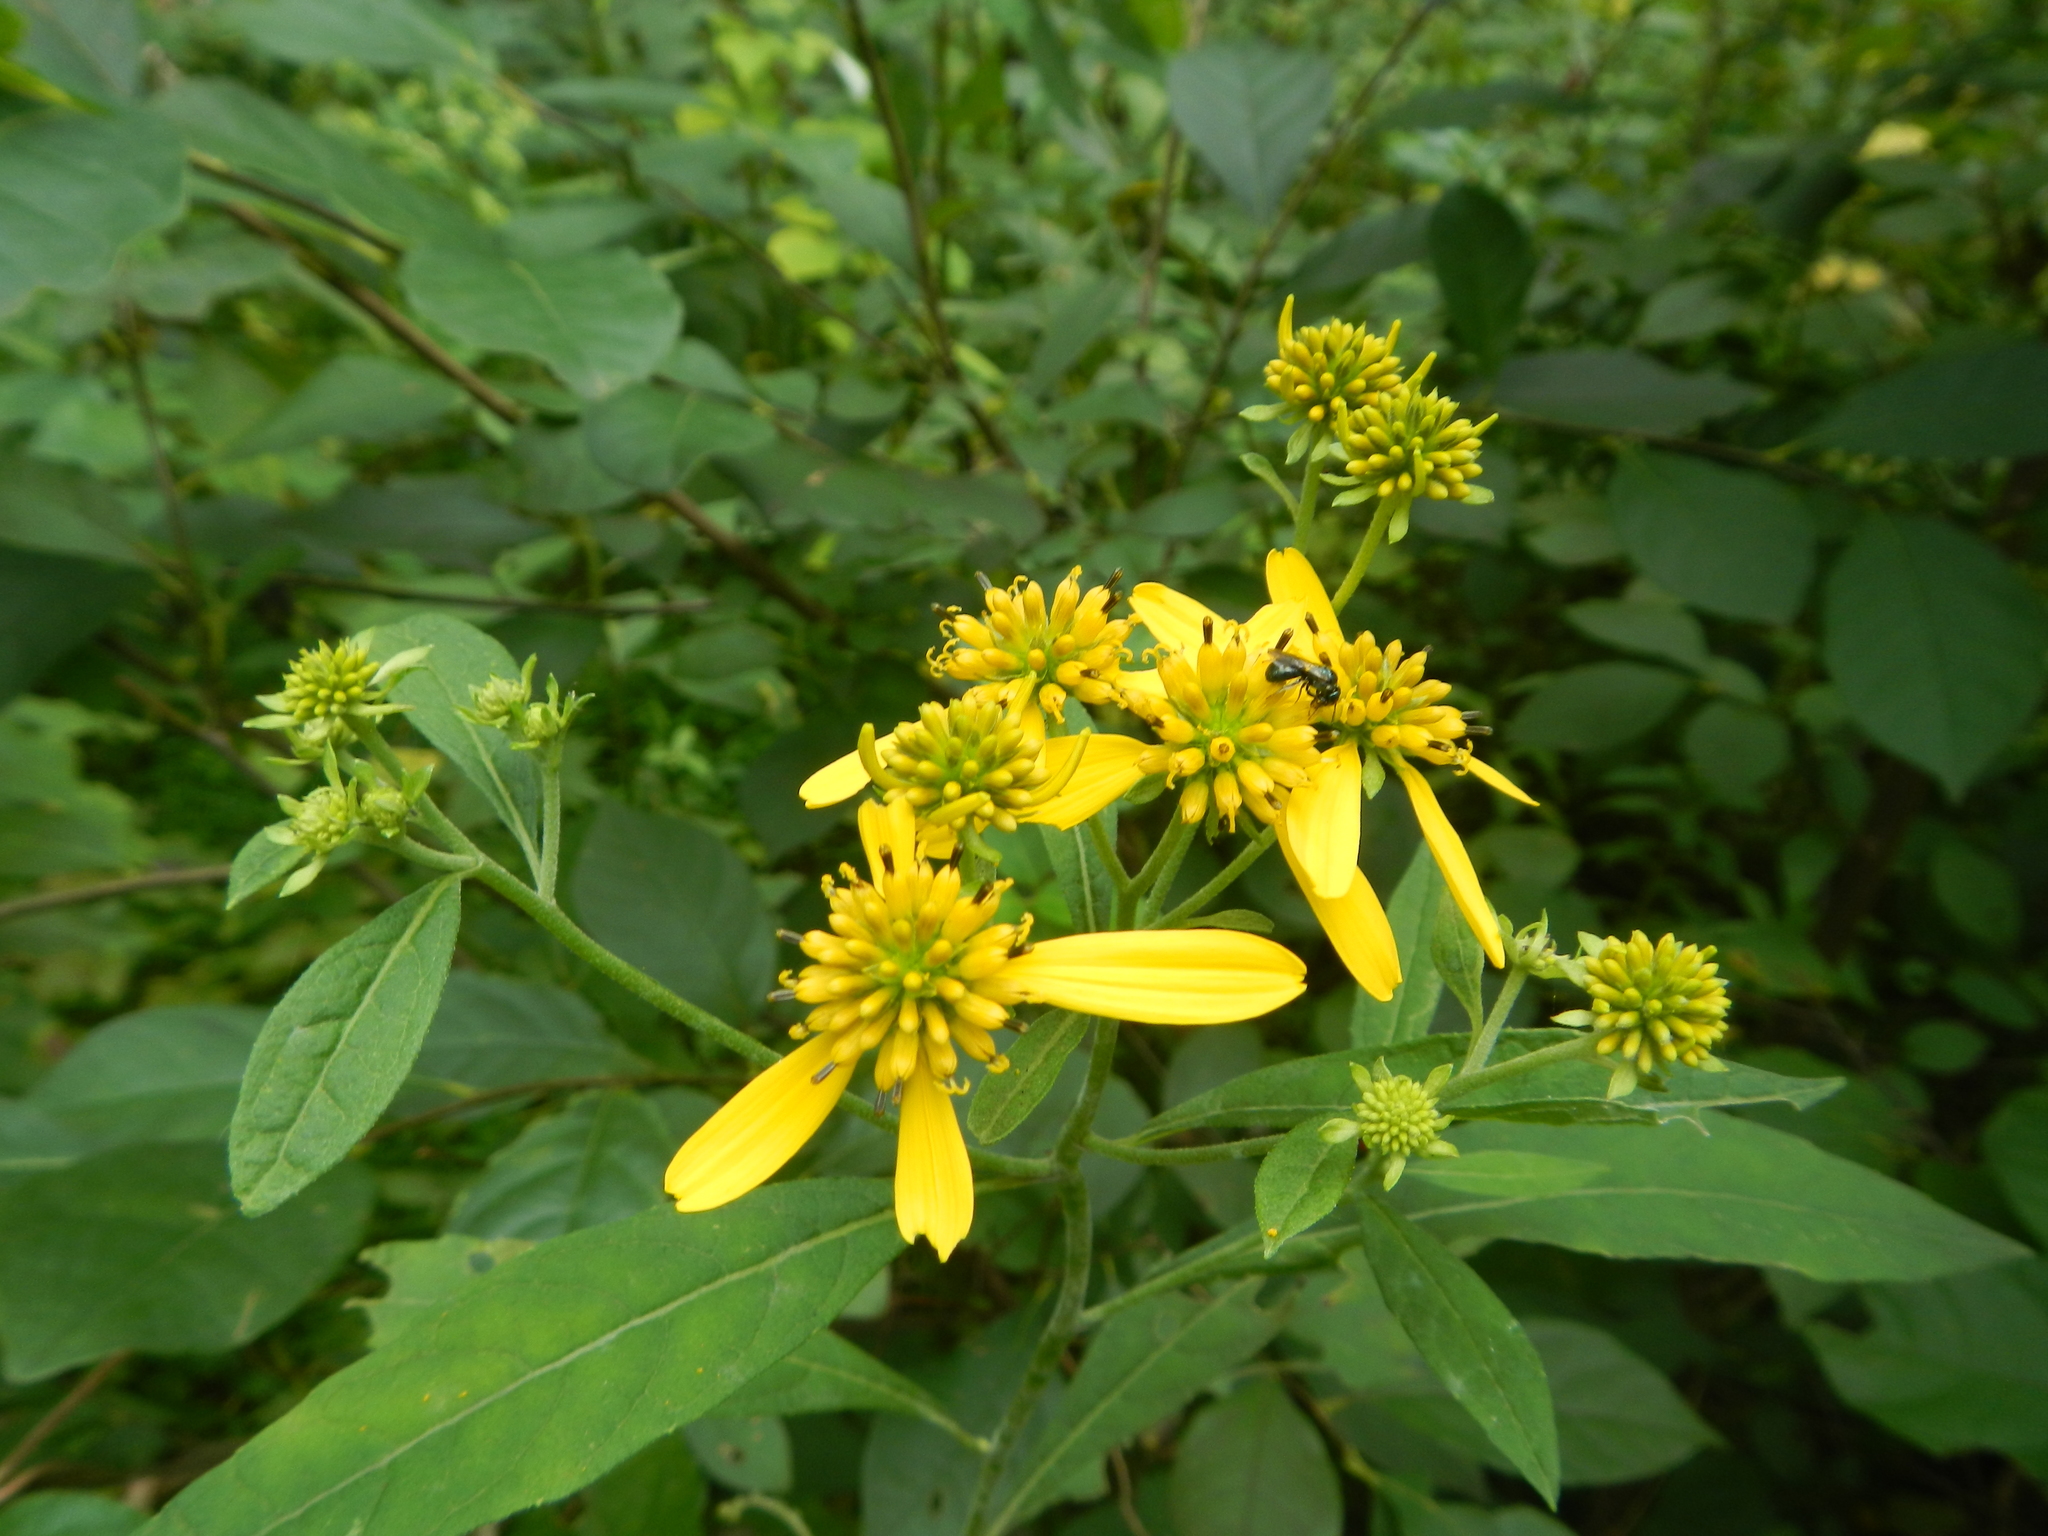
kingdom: Plantae
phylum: Tracheophyta
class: Magnoliopsida
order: Asterales
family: Asteraceae
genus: Verbesina
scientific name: Verbesina alternifolia
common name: Wingstem
